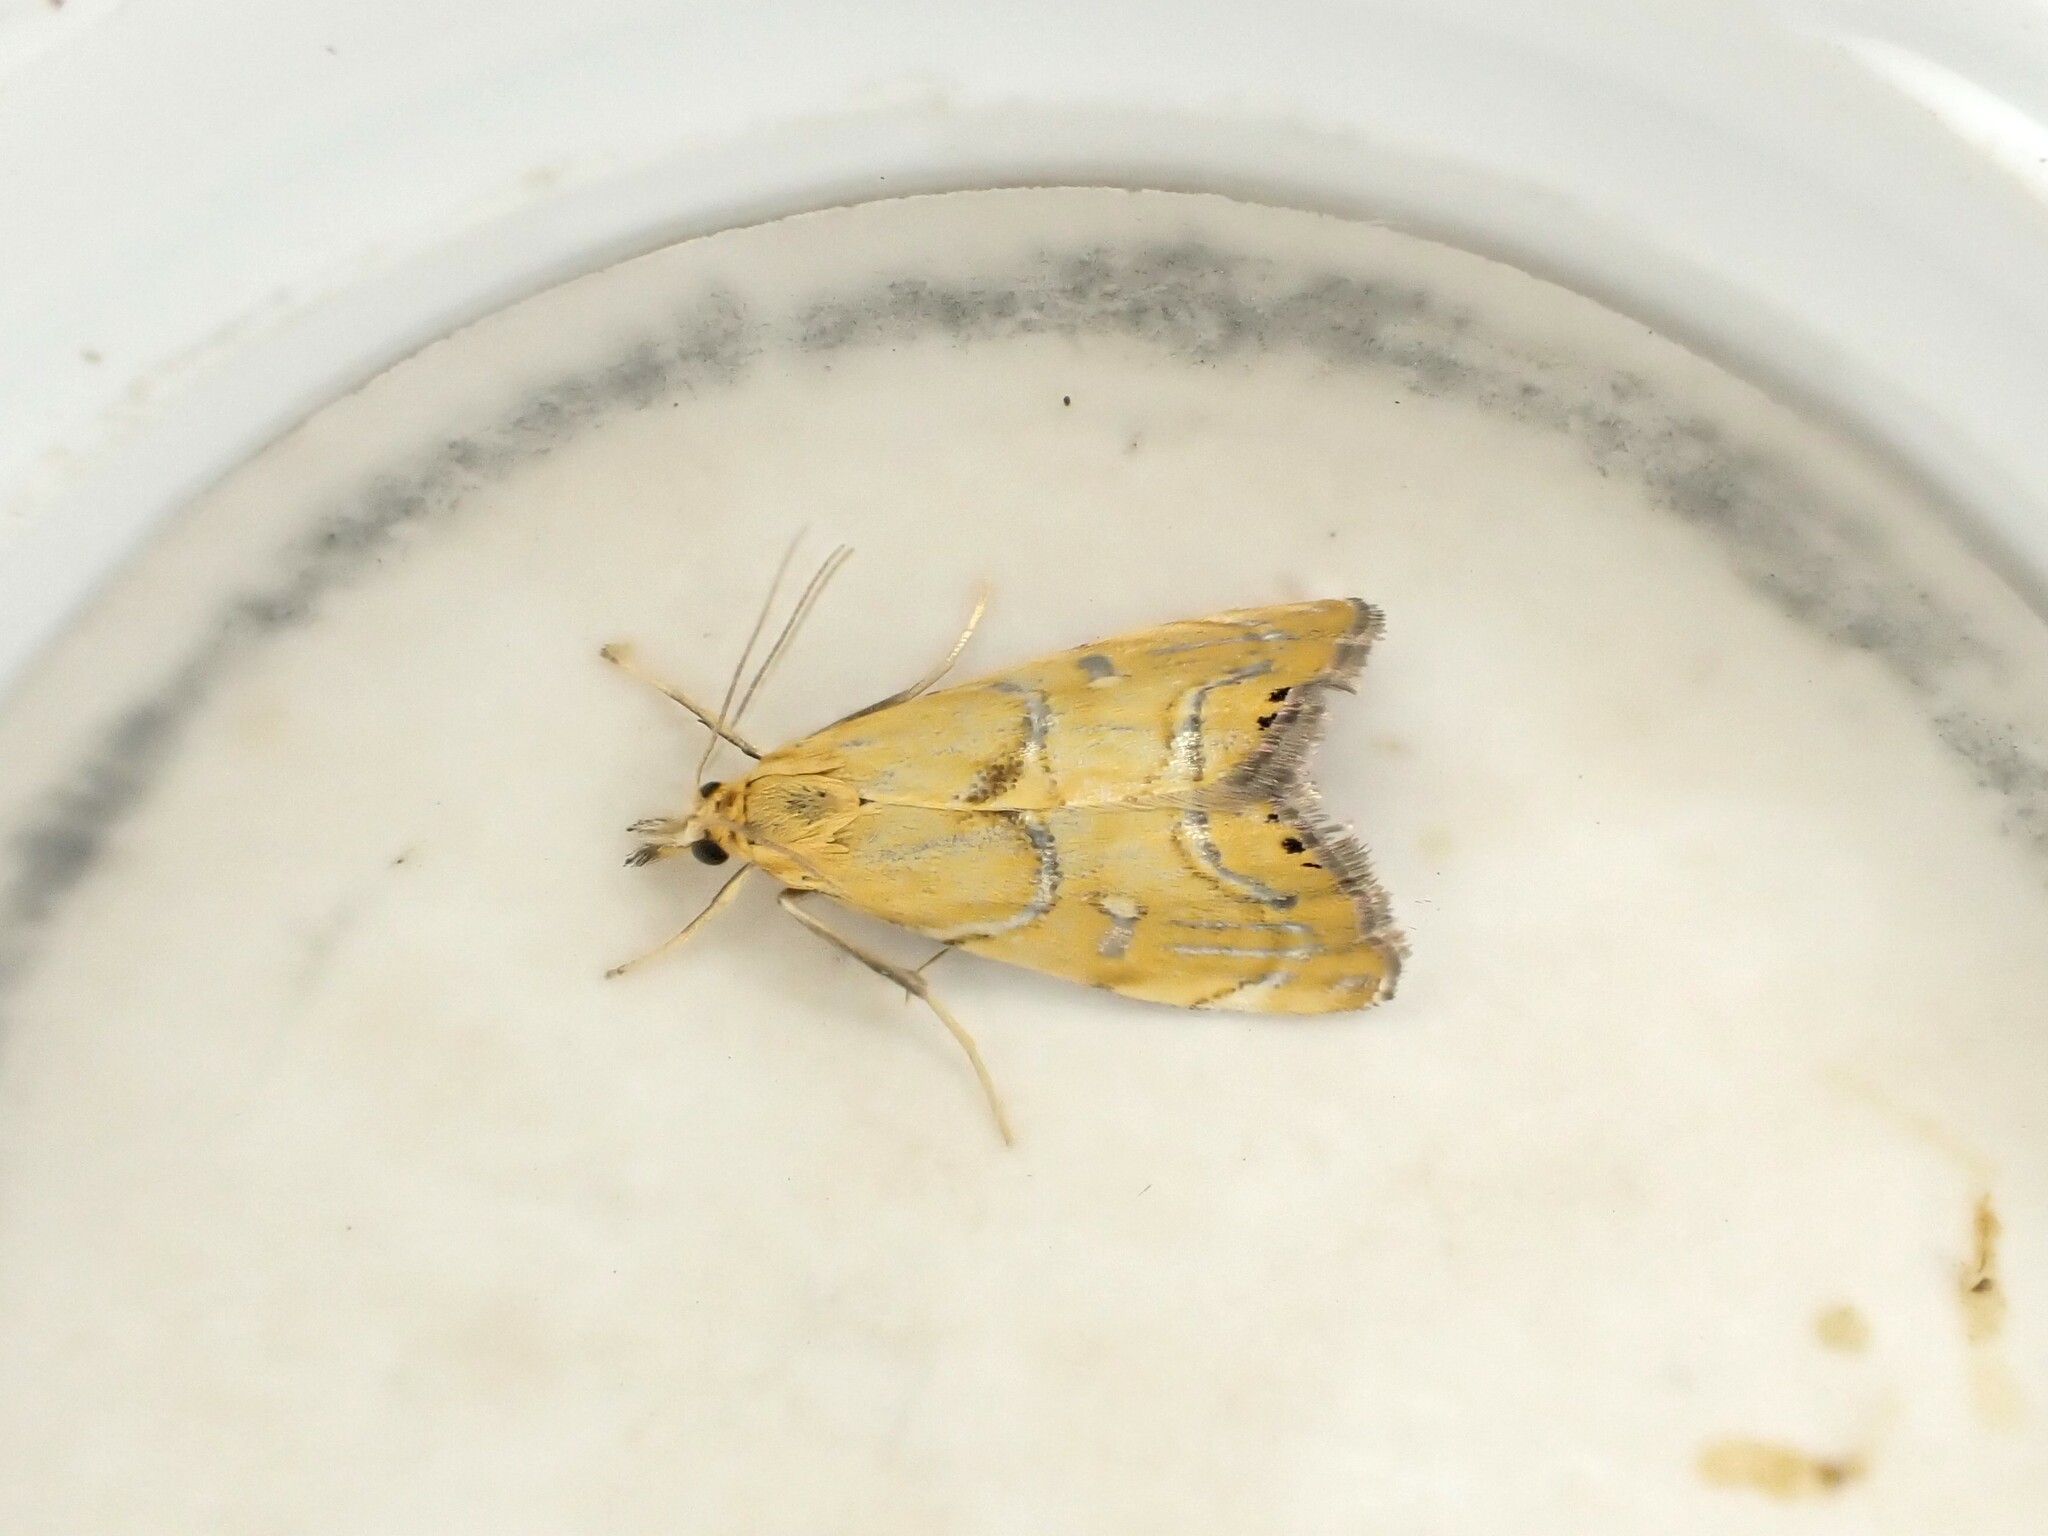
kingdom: Animalia
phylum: Arthropoda
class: Insecta
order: Lepidoptera
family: Crambidae
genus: Glaucocharis
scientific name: Glaucocharis auriscriptella
